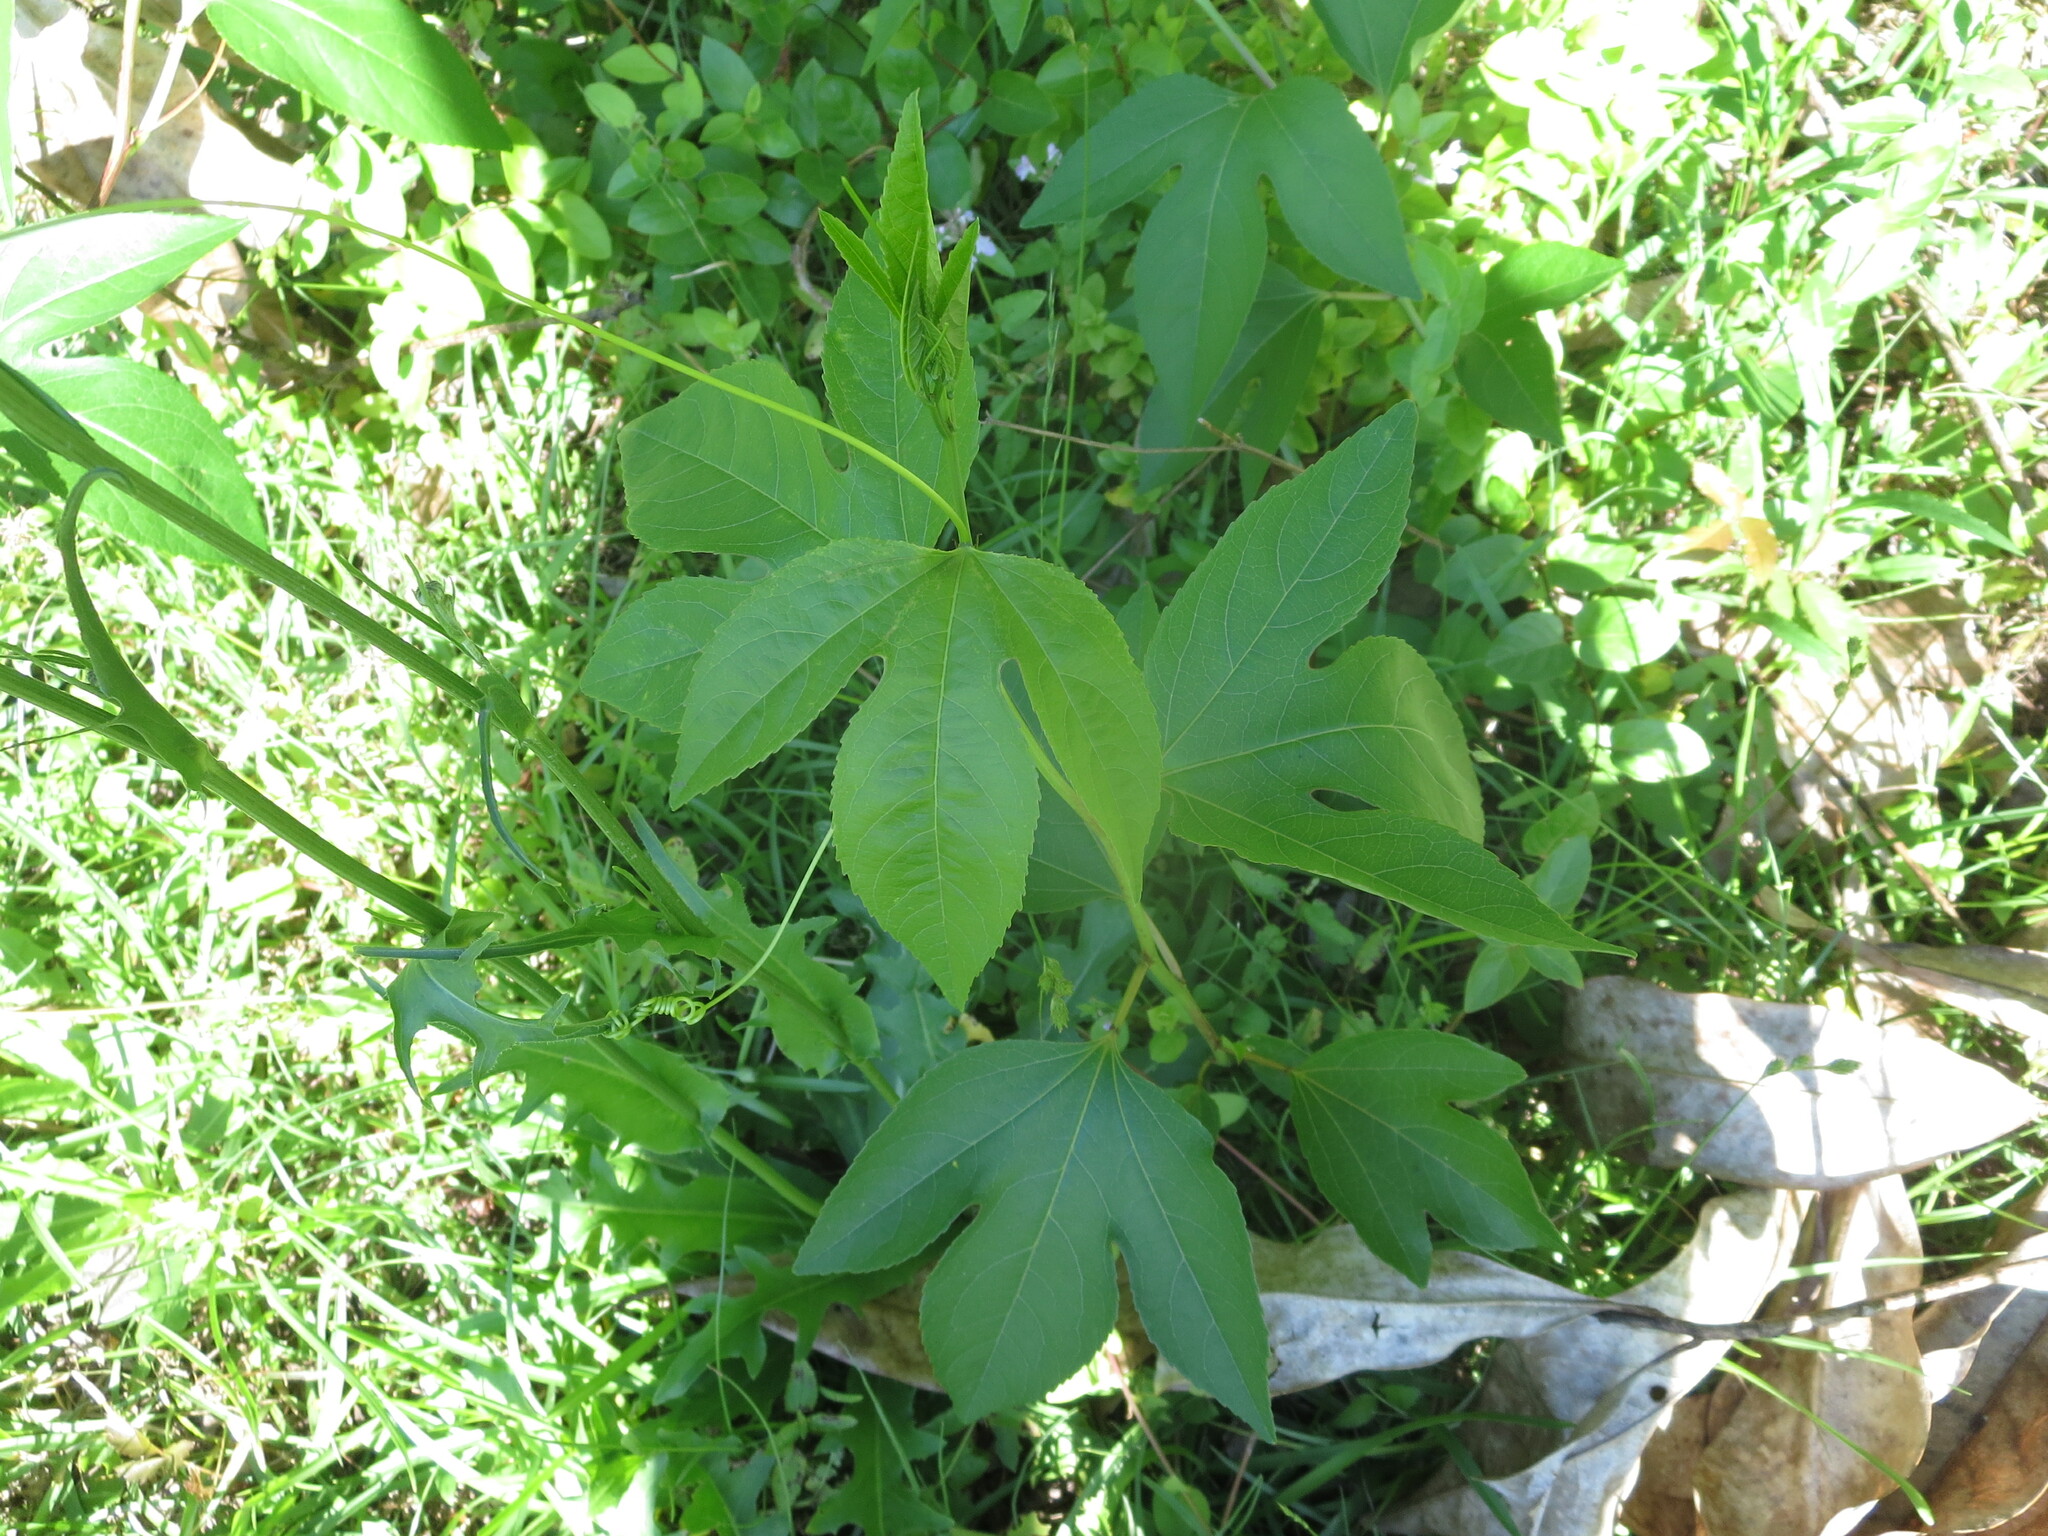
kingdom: Plantae
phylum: Tracheophyta
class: Magnoliopsida
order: Malpighiales
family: Passifloraceae
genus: Passiflora
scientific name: Passiflora incarnata
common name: Apricot-vine
